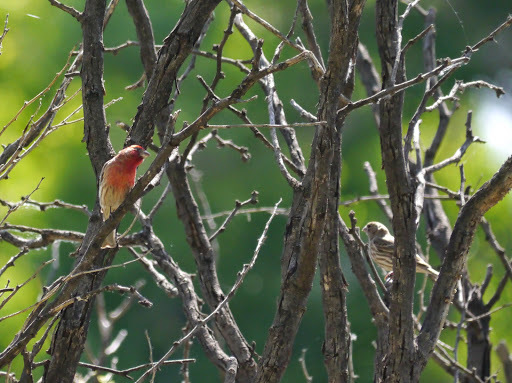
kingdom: Animalia
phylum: Chordata
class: Aves
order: Passeriformes
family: Fringillidae
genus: Haemorhous
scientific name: Haemorhous mexicanus
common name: House finch
